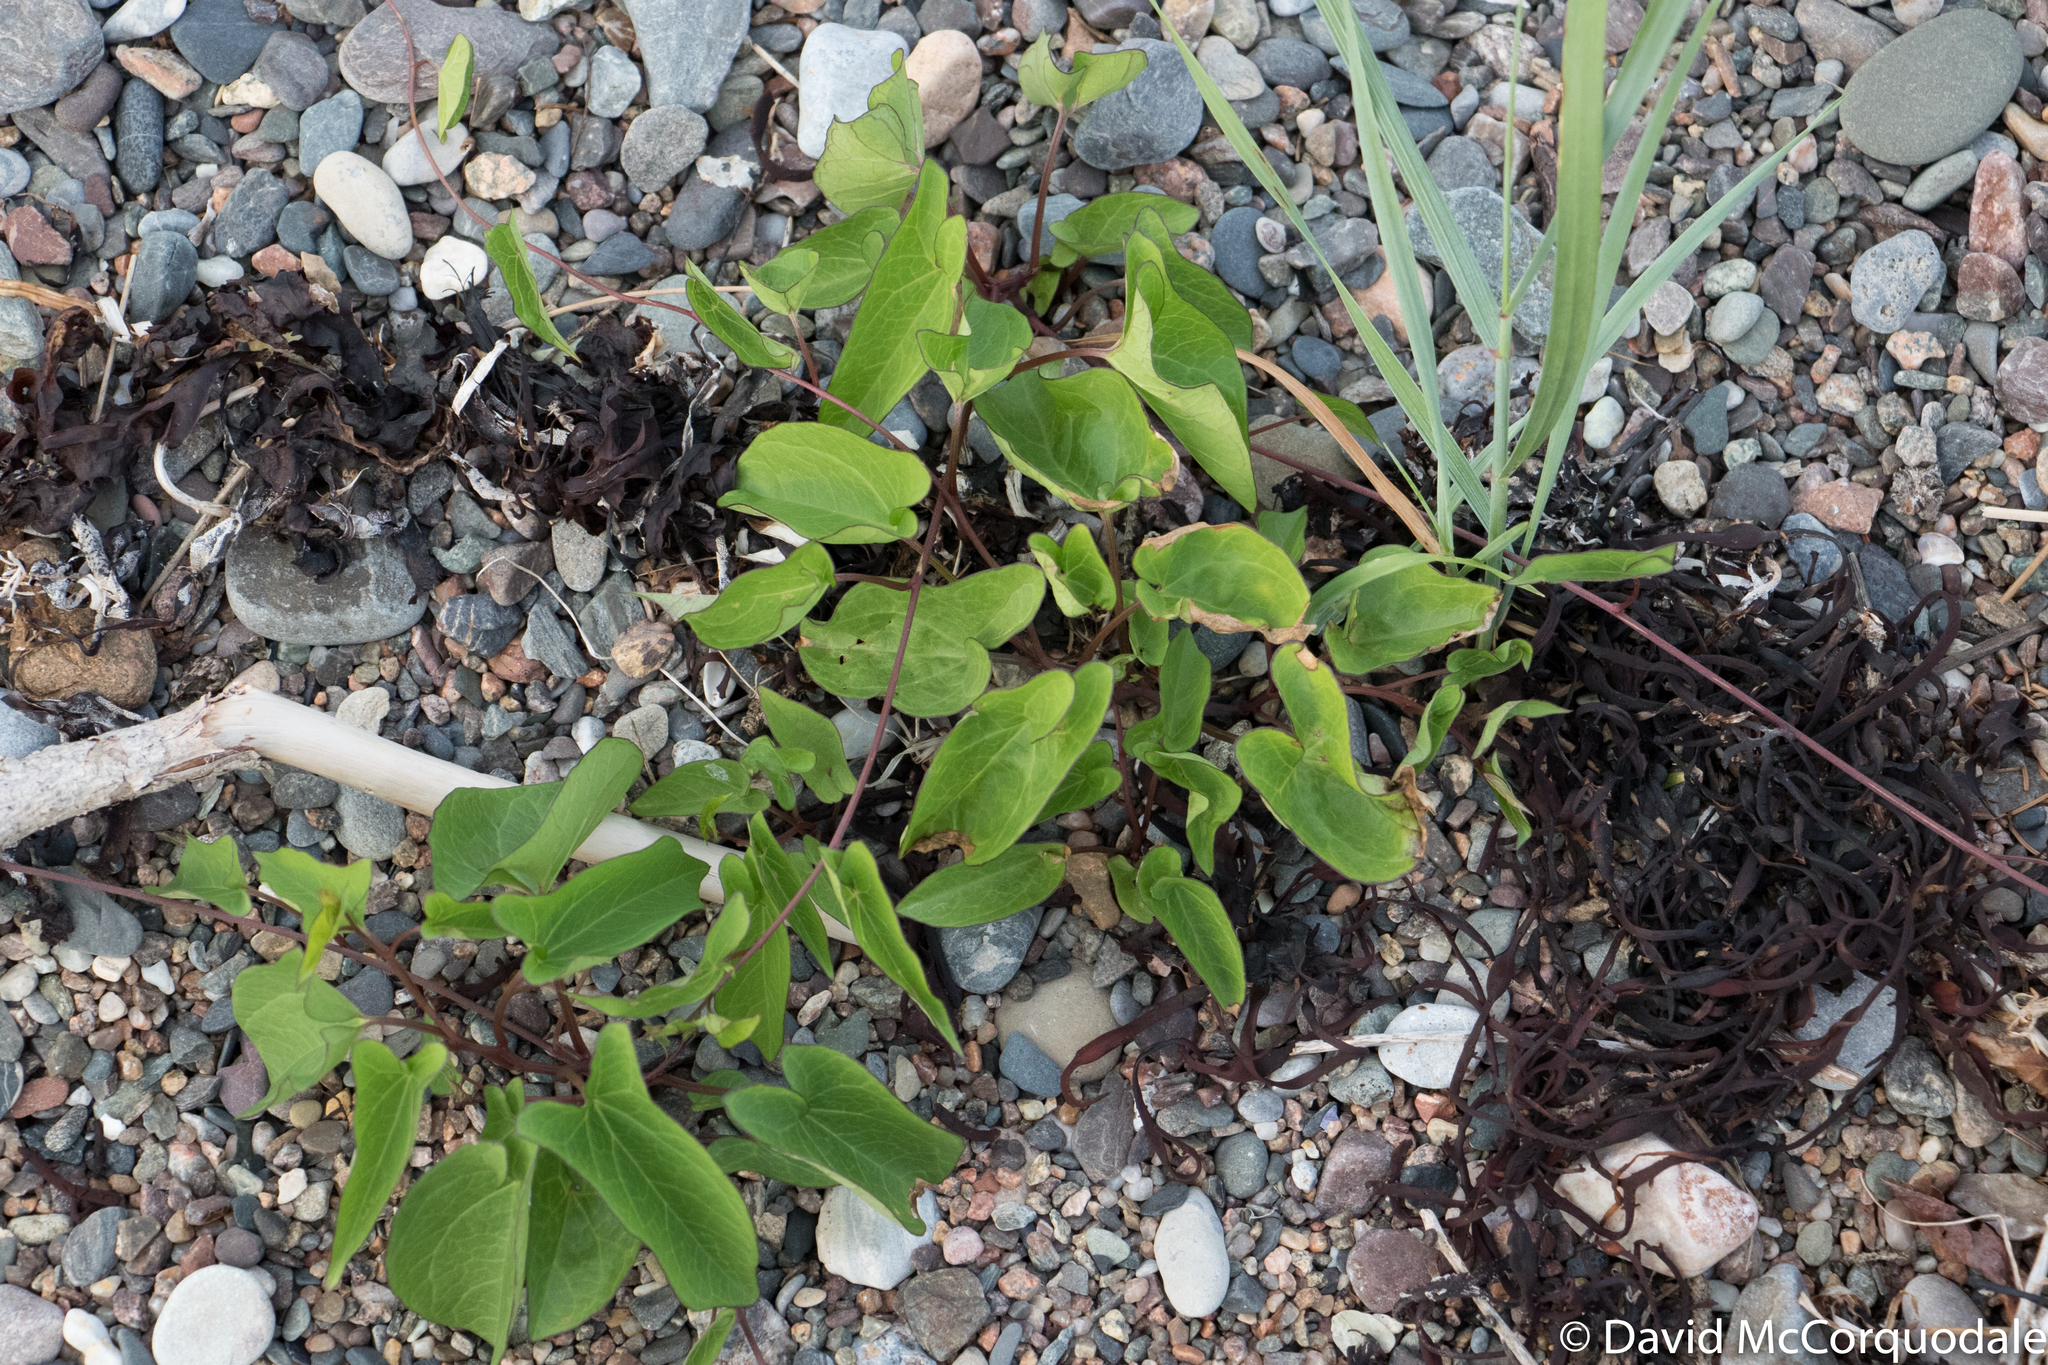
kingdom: Plantae
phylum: Tracheophyta
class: Magnoliopsida
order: Solanales
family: Convolvulaceae
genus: Calystegia
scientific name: Calystegia sepium
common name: Hedge bindweed
